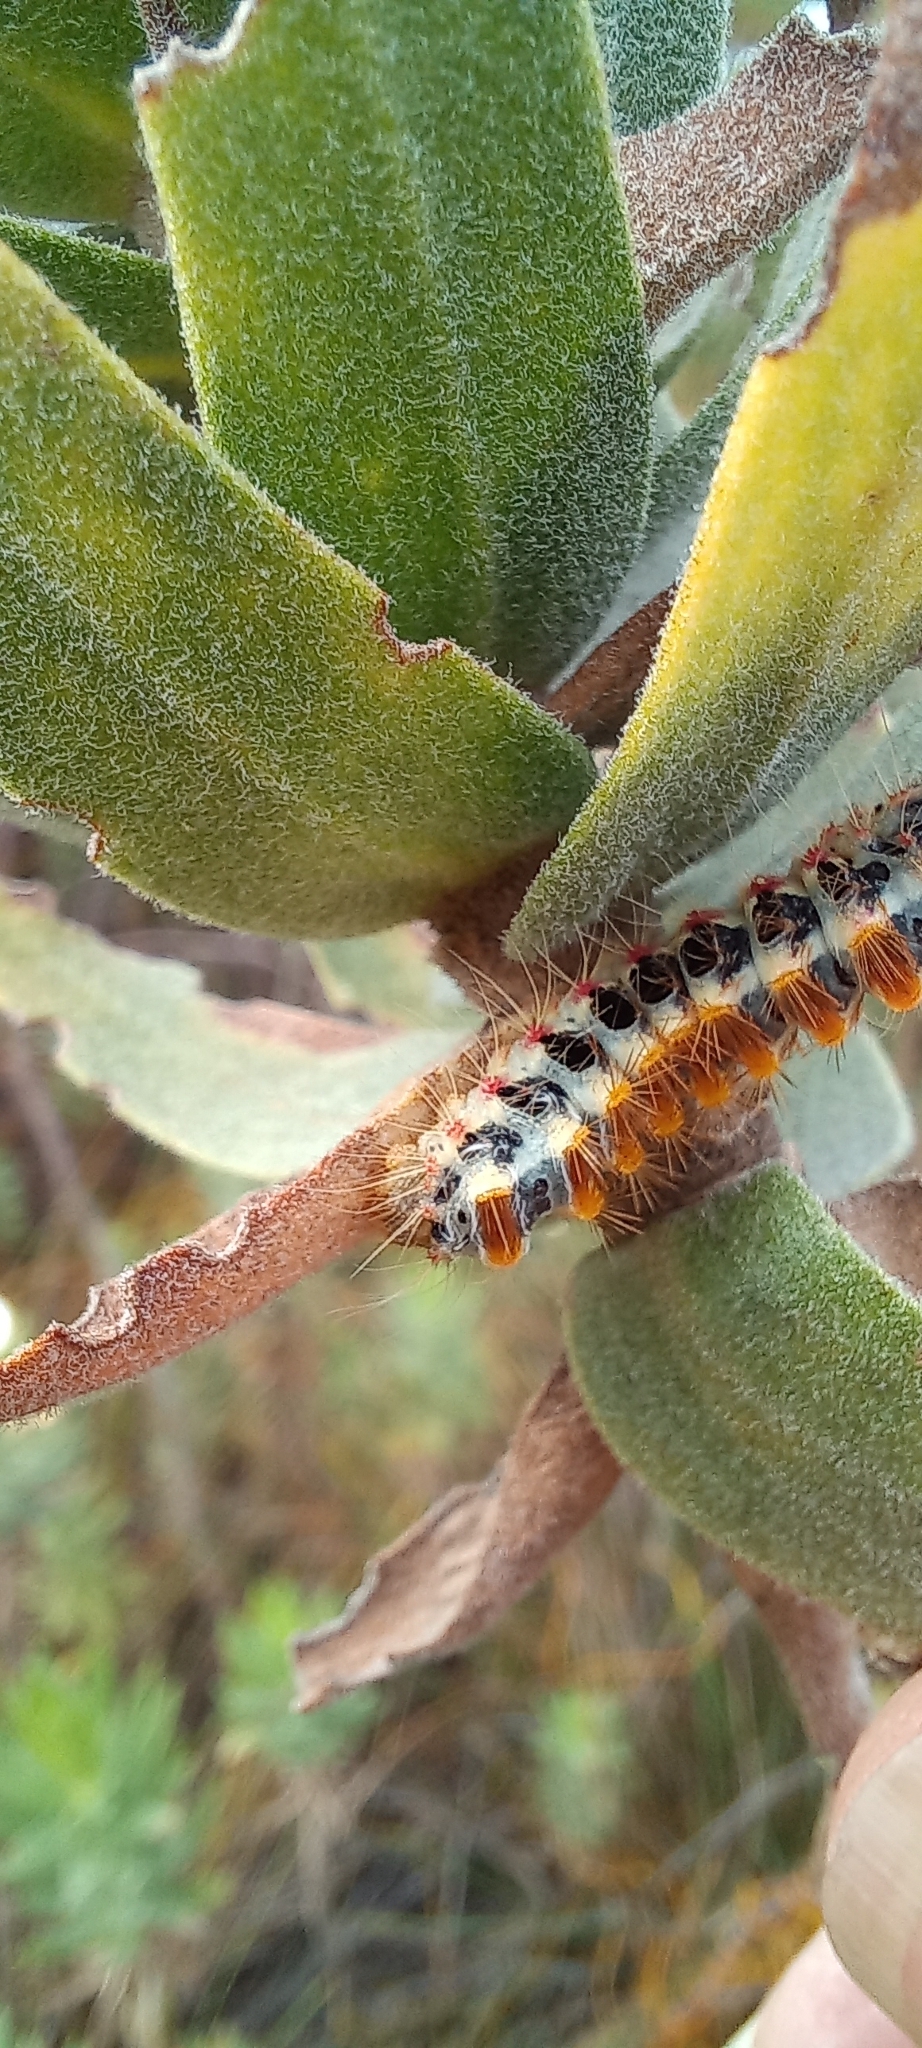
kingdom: Animalia
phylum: Arthropoda
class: Insecta
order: Lepidoptera
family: Somabrachyidae
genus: Psycharium
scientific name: Psycharium pellucens
